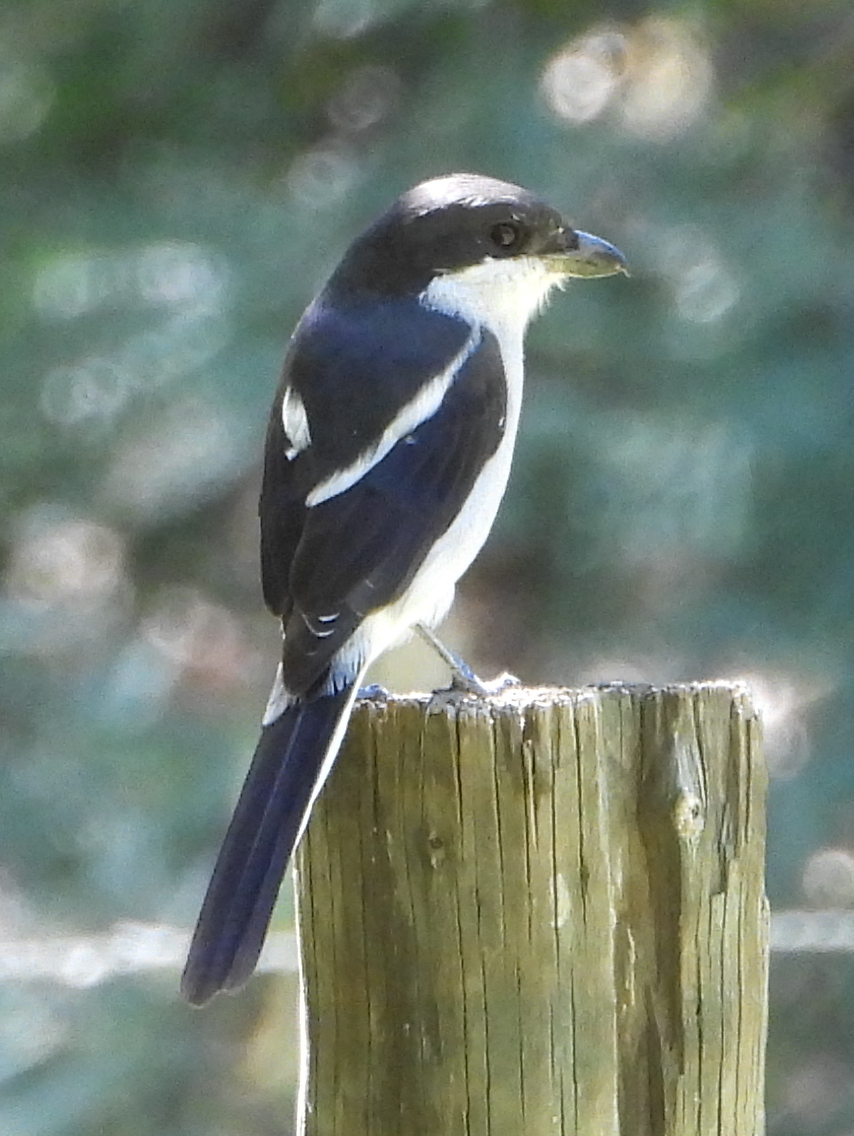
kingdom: Animalia
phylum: Chordata
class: Aves
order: Passeriformes
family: Laniidae
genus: Lanius
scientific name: Lanius collaris
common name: Southern fiscal
